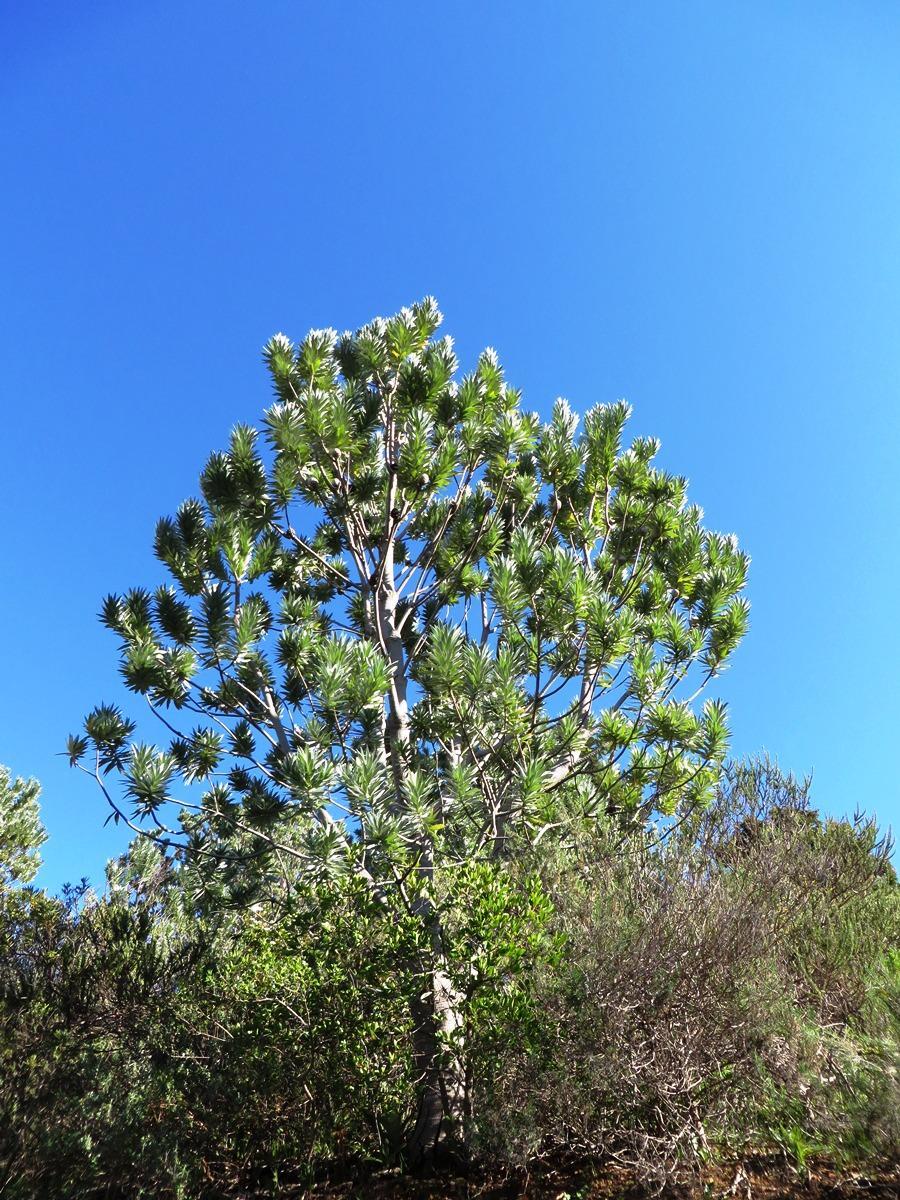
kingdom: Plantae
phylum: Tracheophyta
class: Magnoliopsida
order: Proteales
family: Proteaceae
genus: Leucadendron
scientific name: Leucadendron argenteum
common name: Cape silver tree
